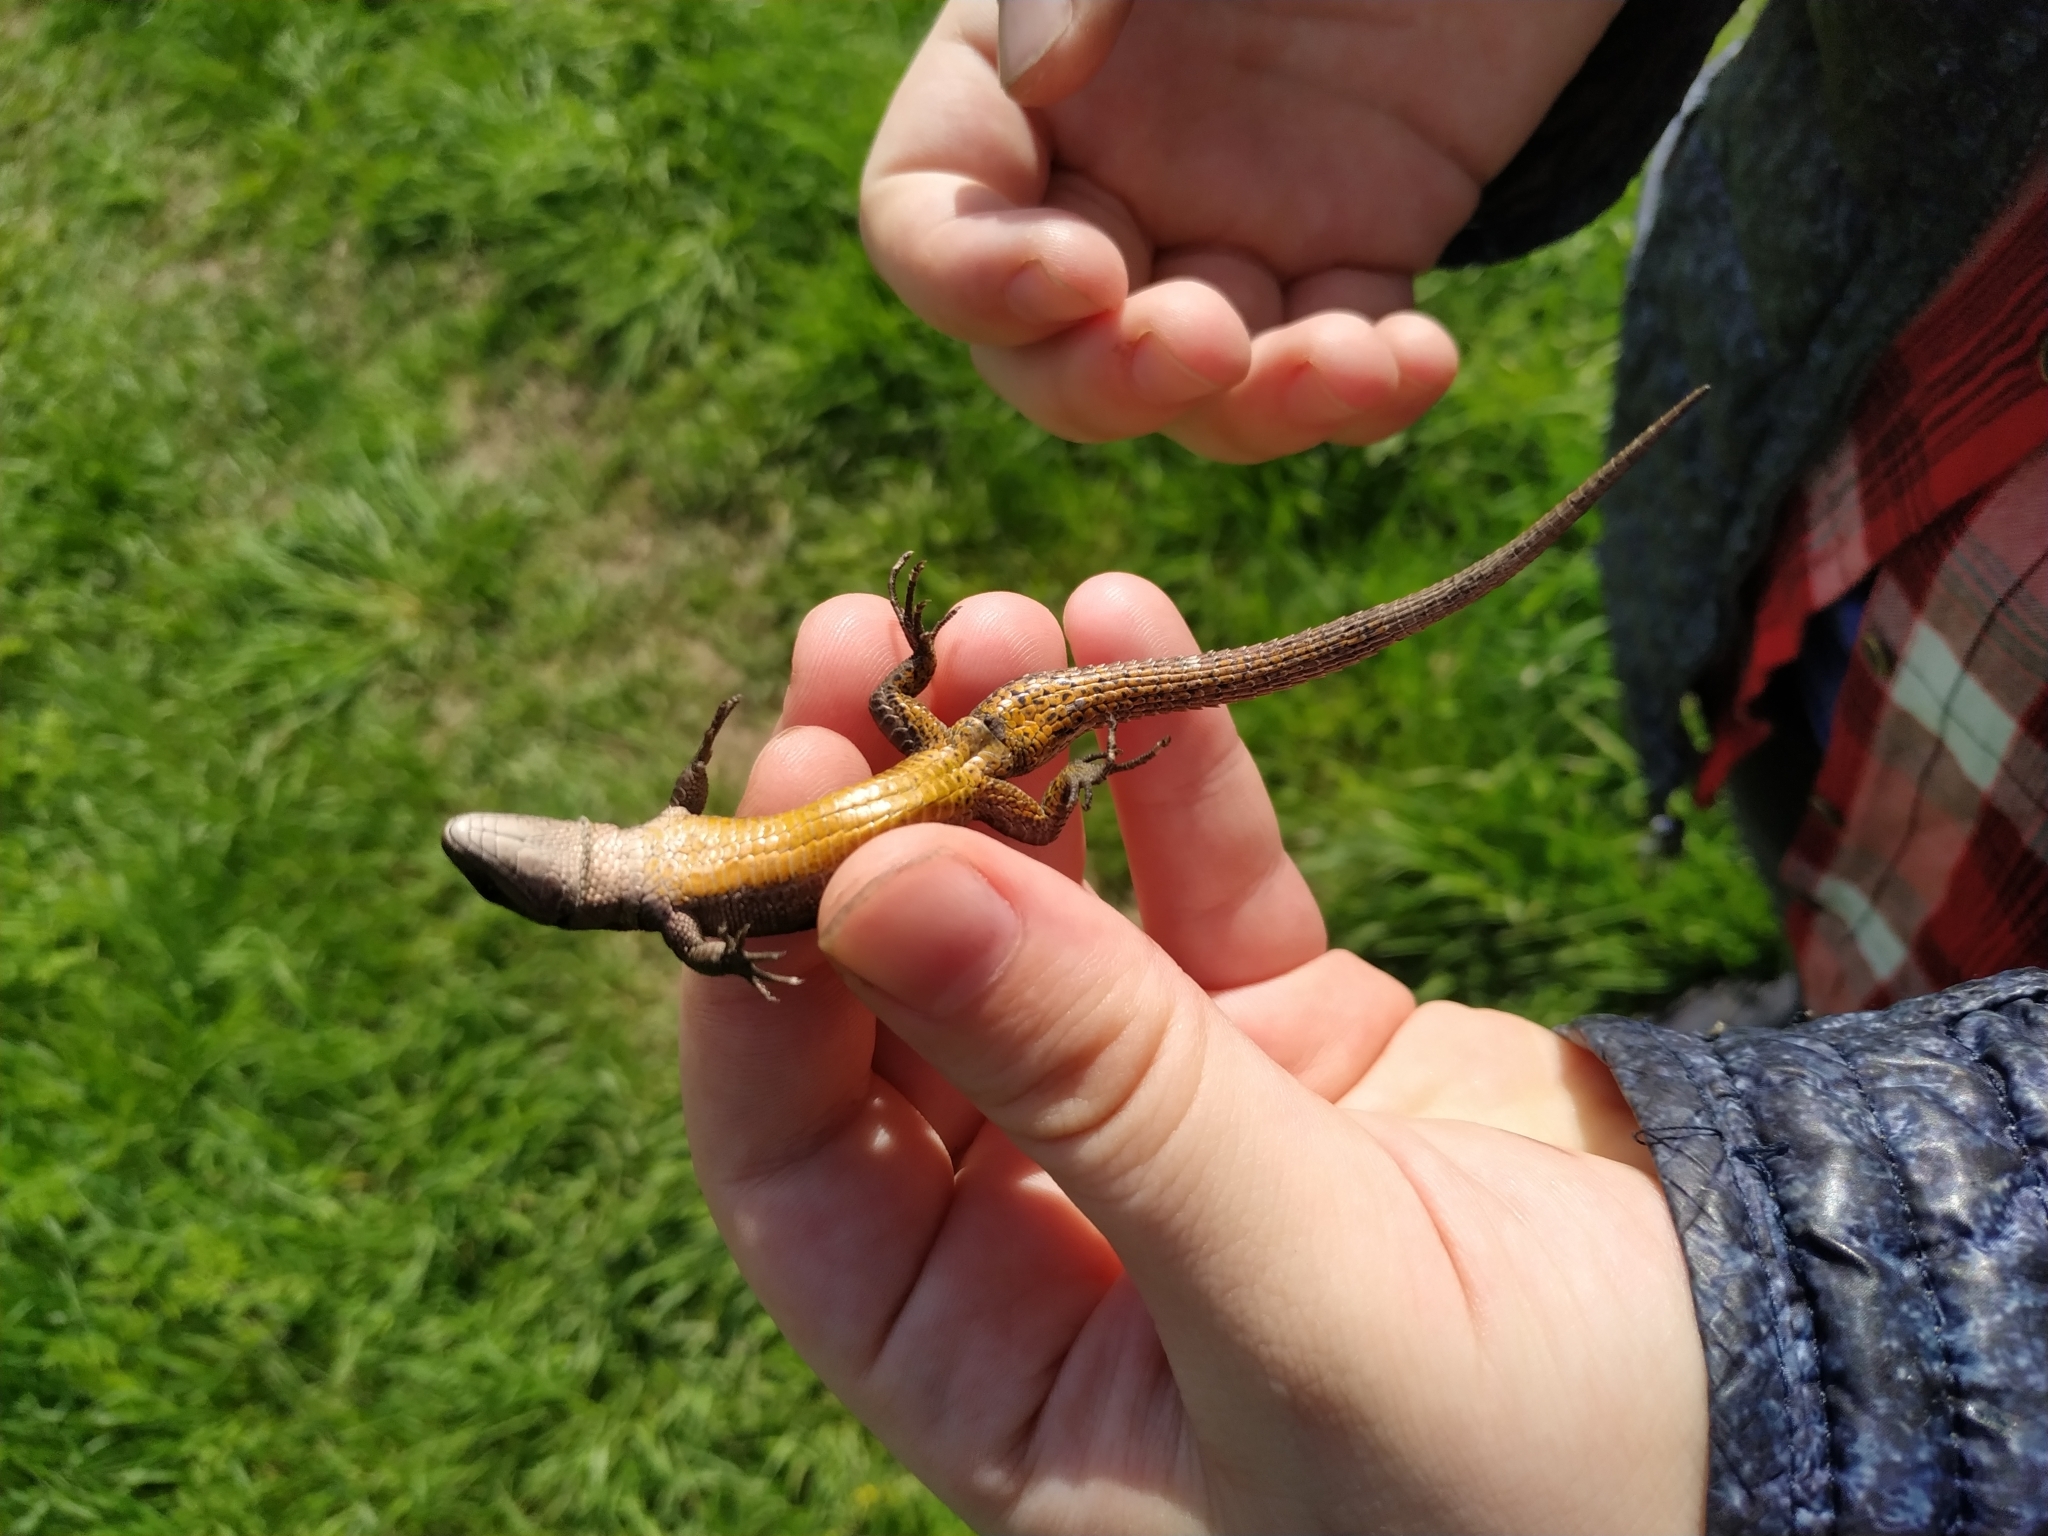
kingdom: Animalia
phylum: Chordata
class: Squamata
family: Lacertidae
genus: Zootoca
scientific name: Zootoca vivipara
